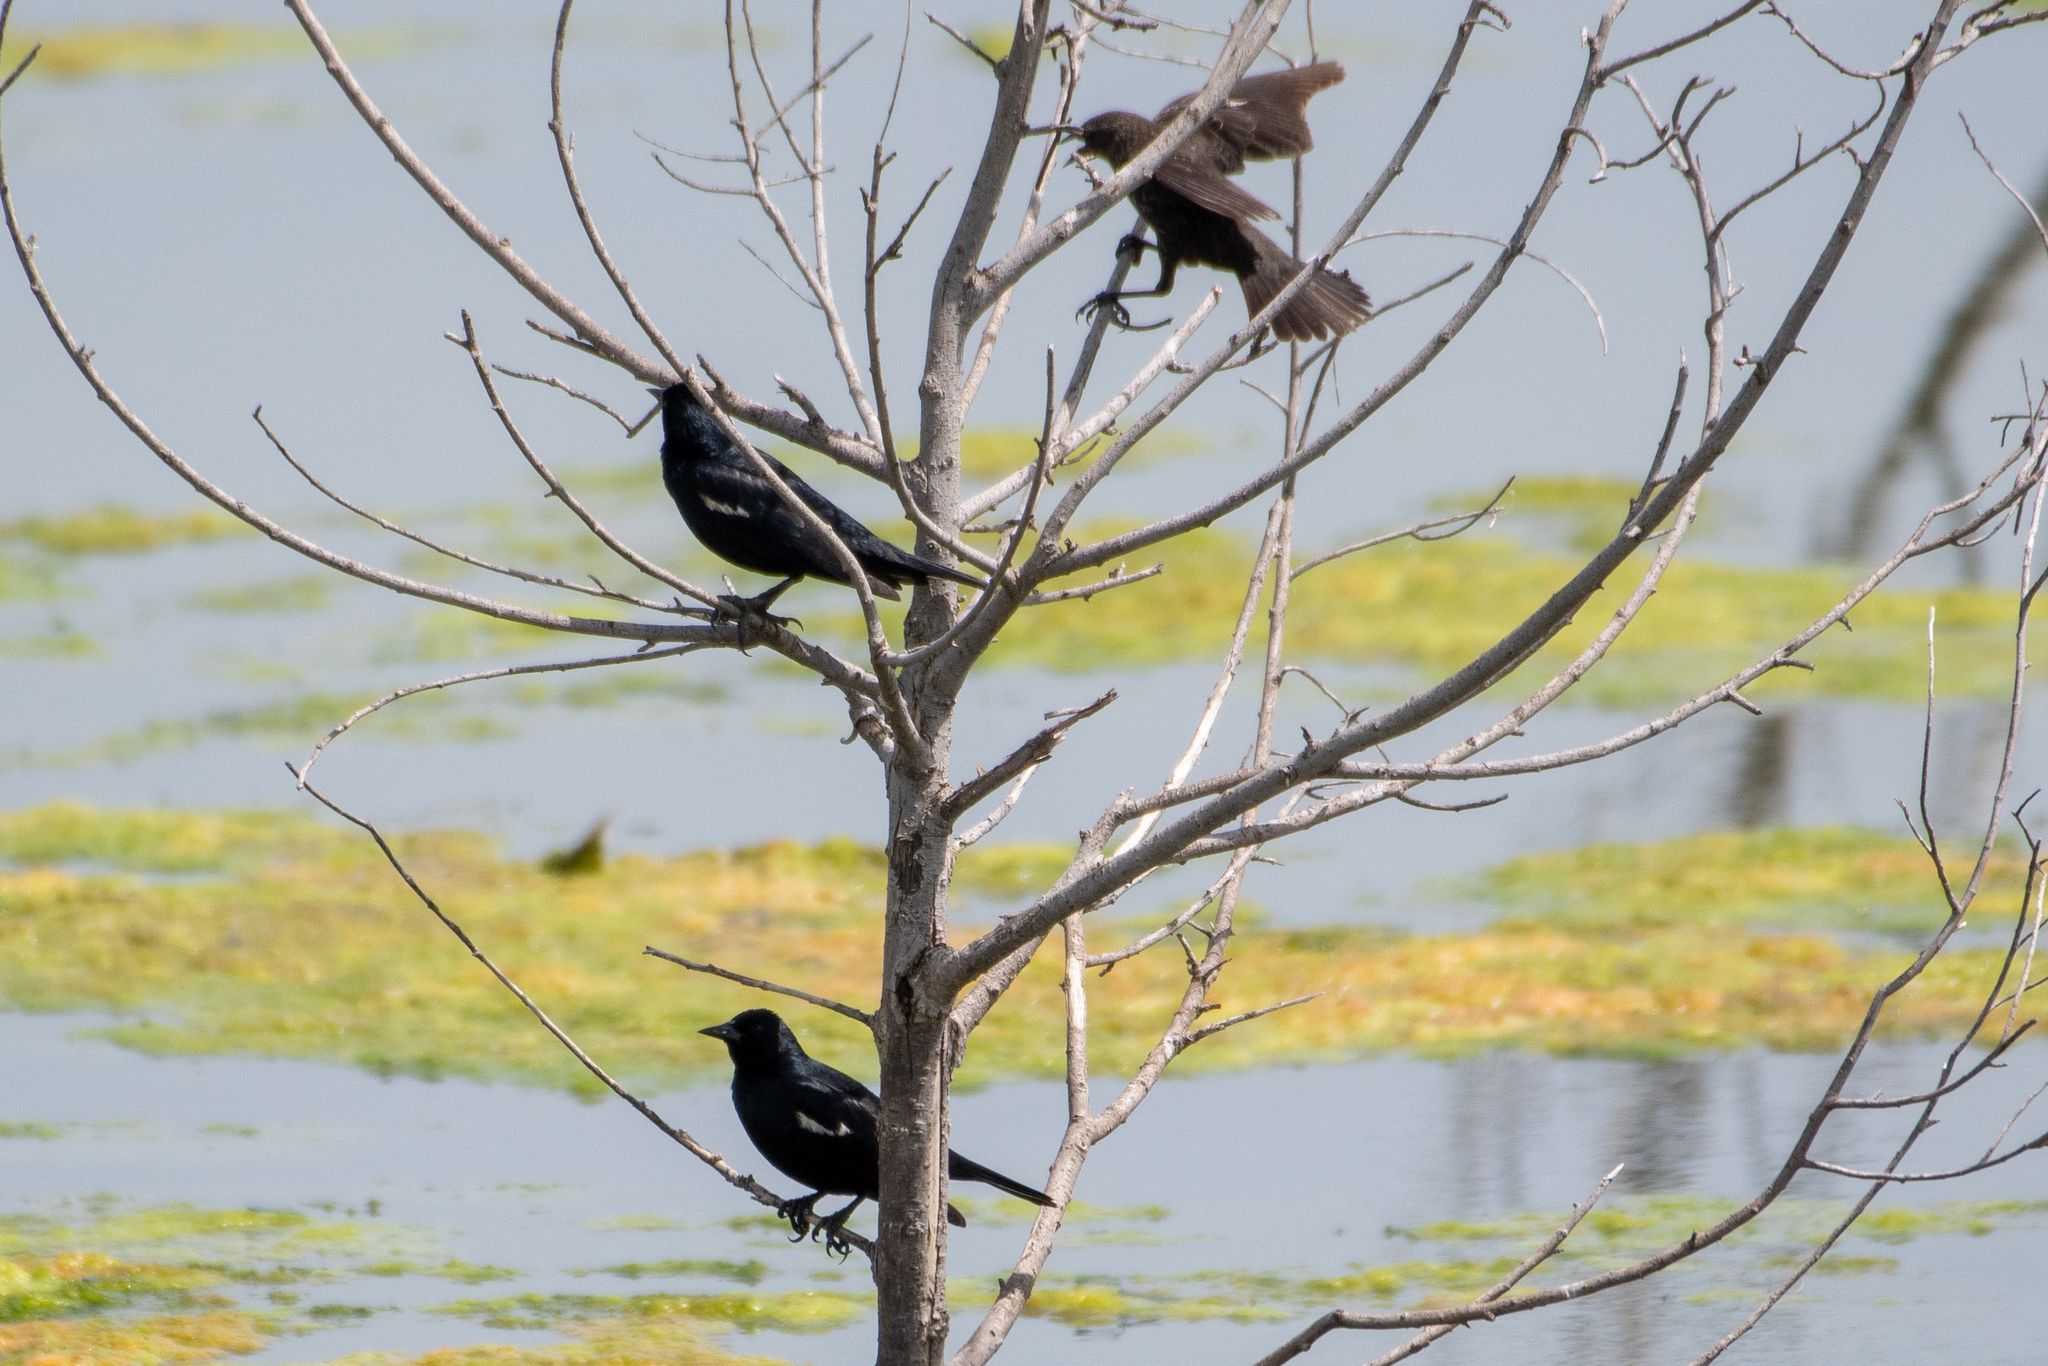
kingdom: Animalia
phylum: Chordata
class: Aves
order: Passeriformes
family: Icteridae
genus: Agelaius
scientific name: Agelaius tricolor
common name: Tricolored blackbird
